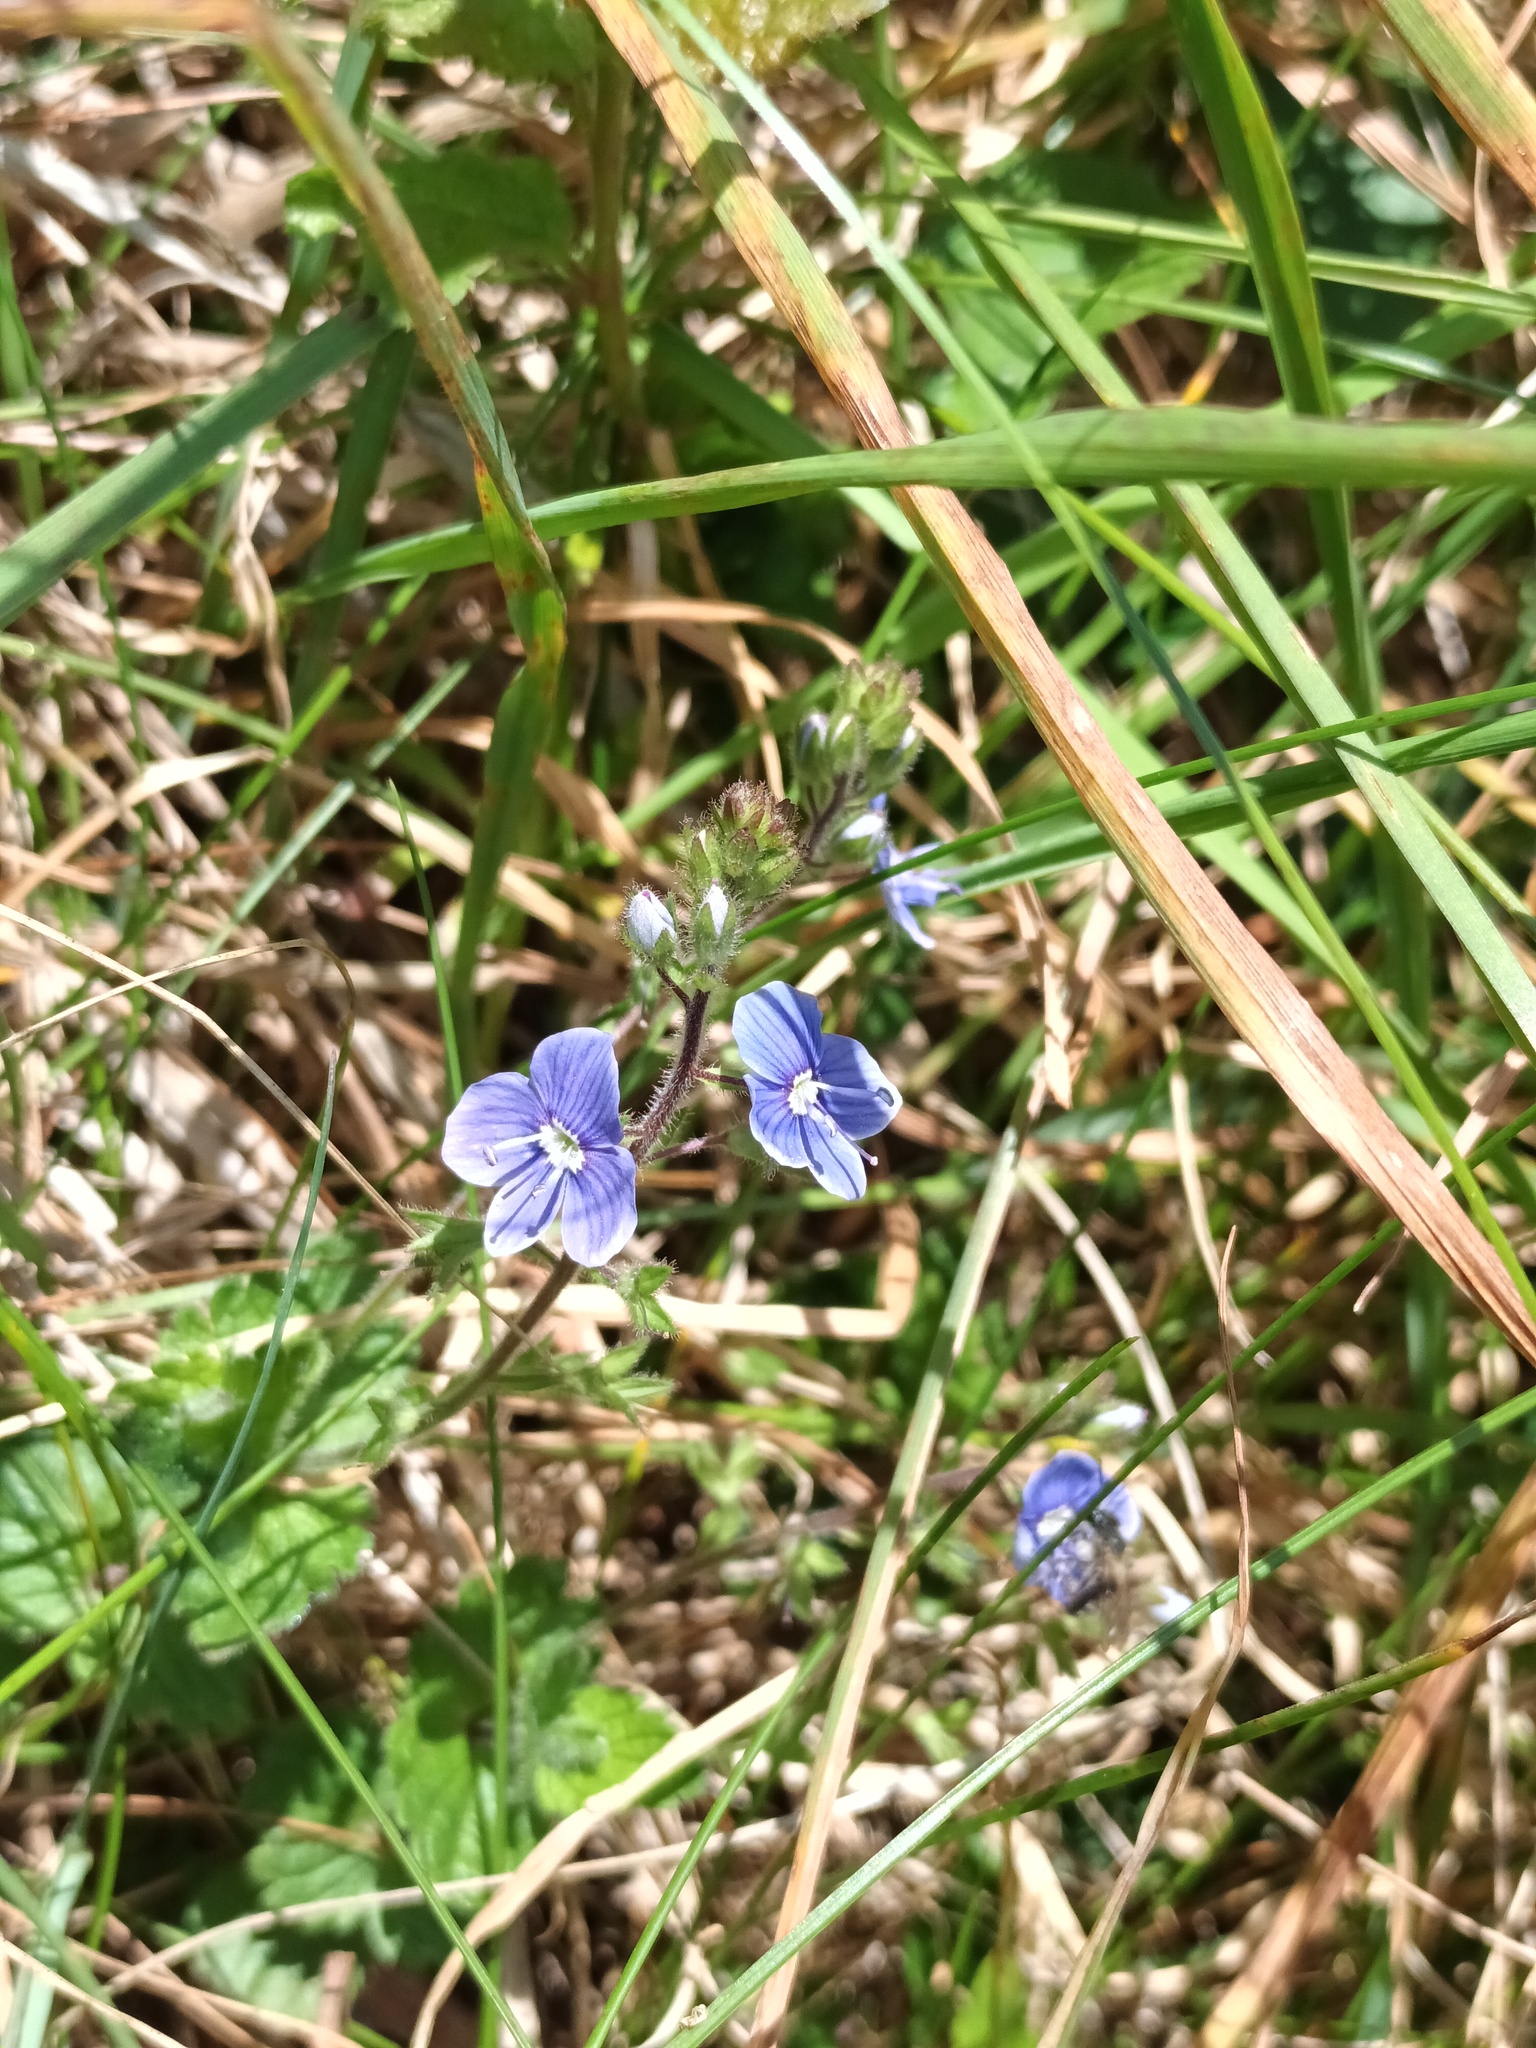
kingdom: Plantae
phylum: Tracheophyta
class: Magnoliopsida
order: Lamiales
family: Plantaginaceae
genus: Veronica
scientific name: Veronica chamaedrys
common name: Germander speedwell
